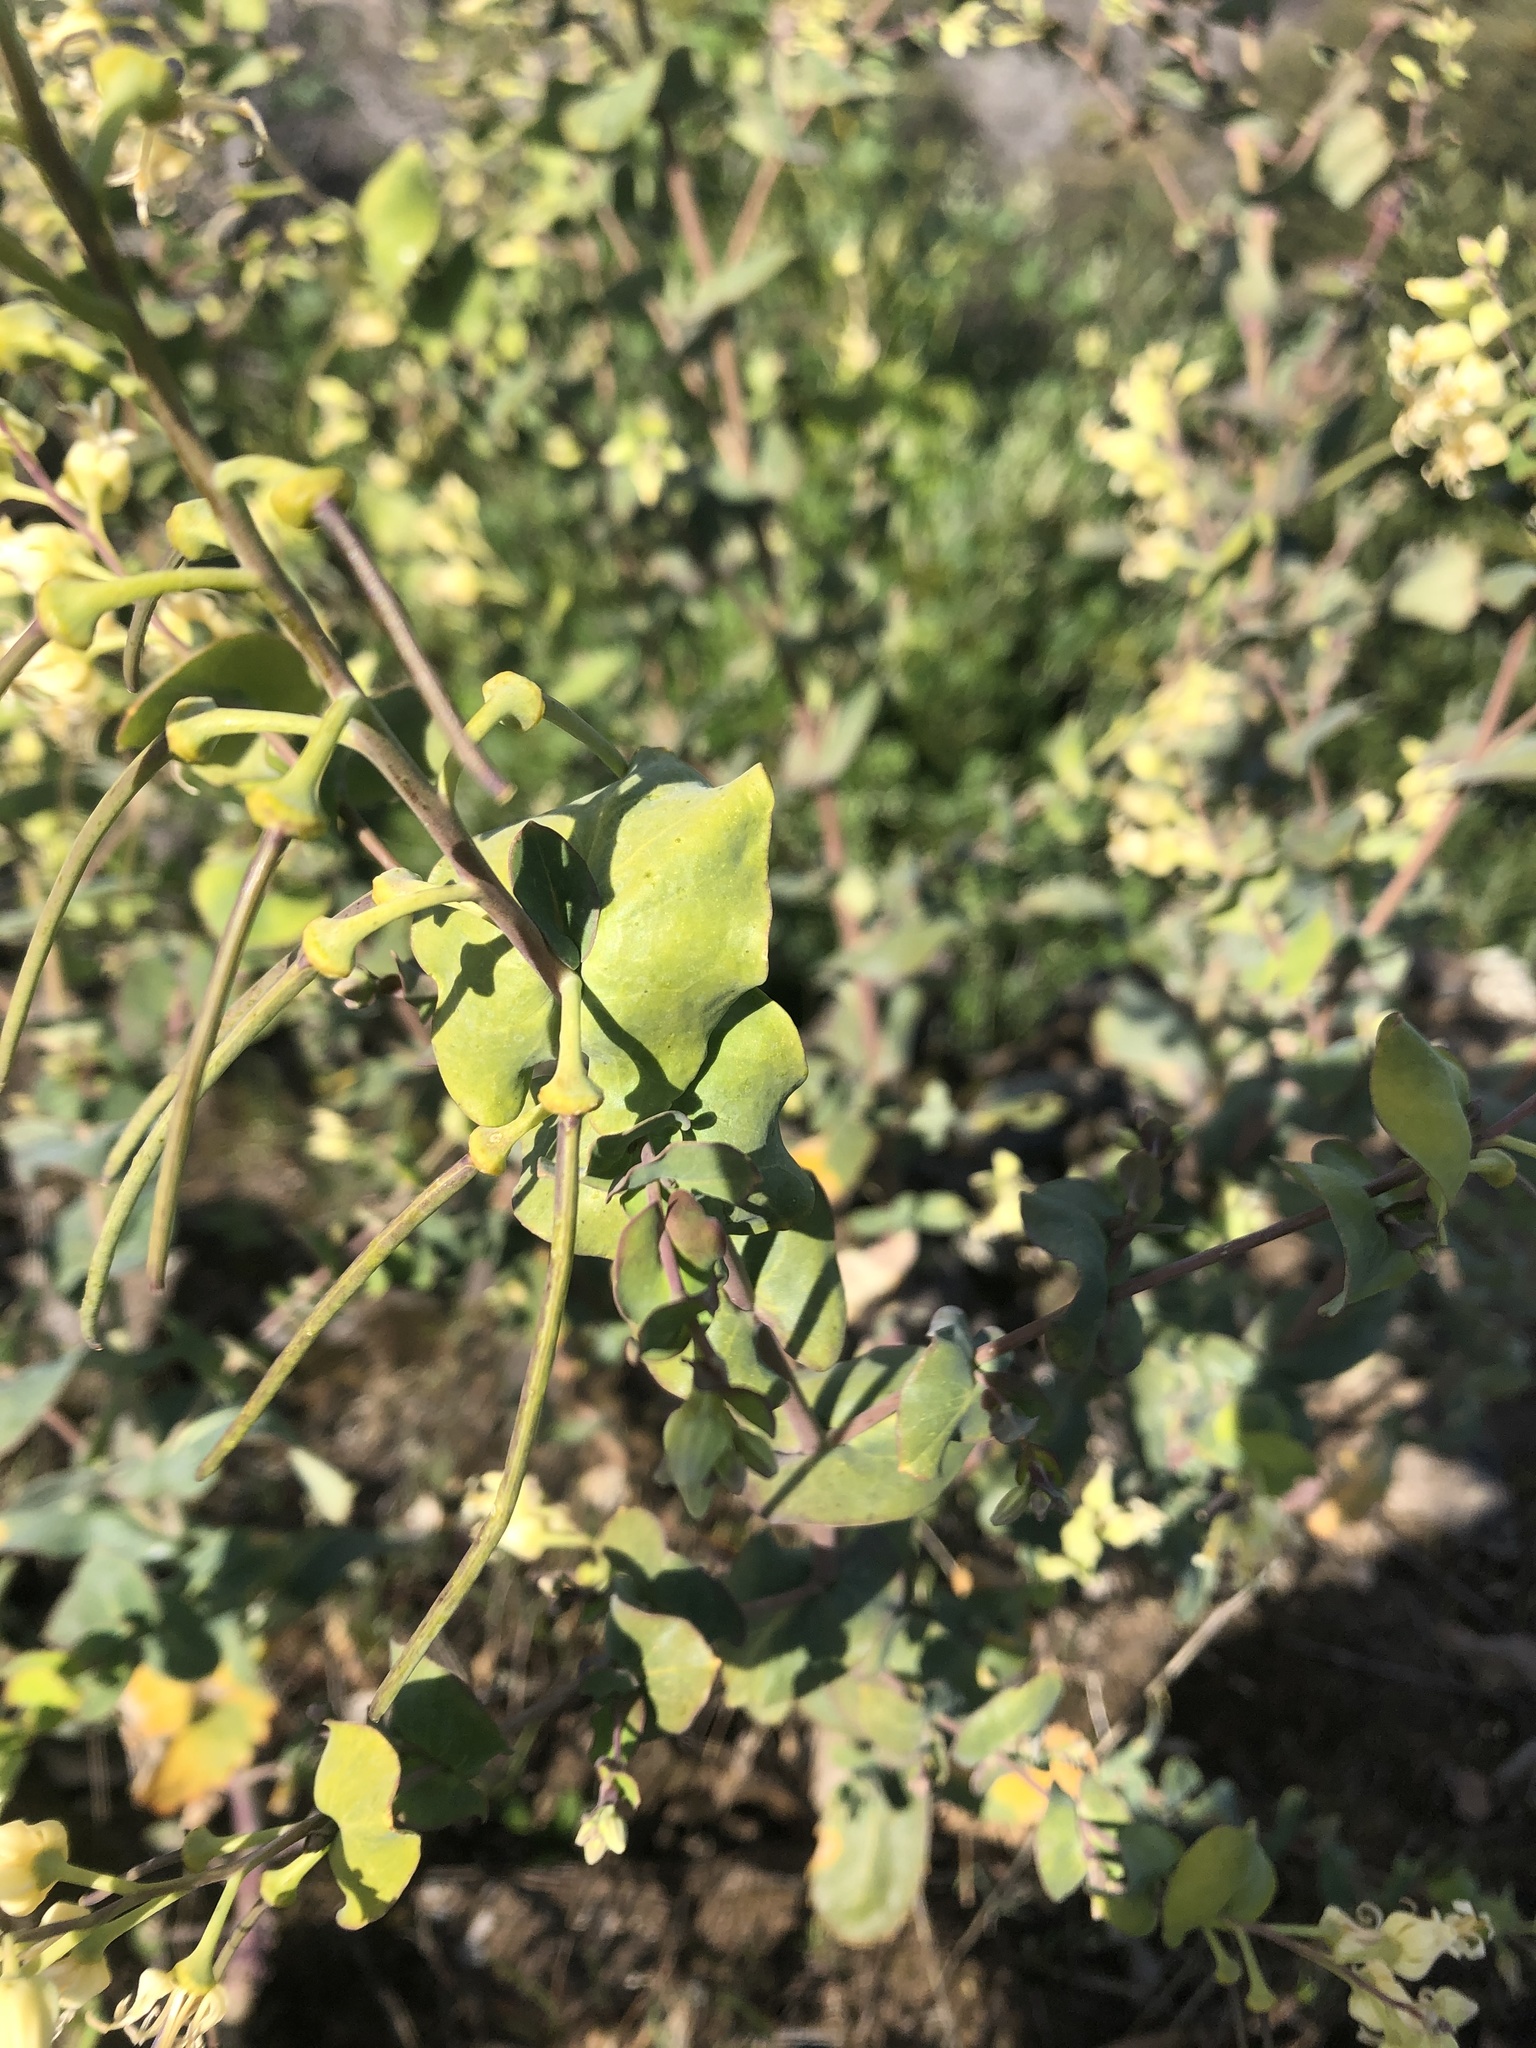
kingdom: Plantae
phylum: Tracheophyta
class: Magnoliopsida
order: Brassicales
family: Brassicaceae
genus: Streptanthus
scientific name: Streptanthus tortuosus
